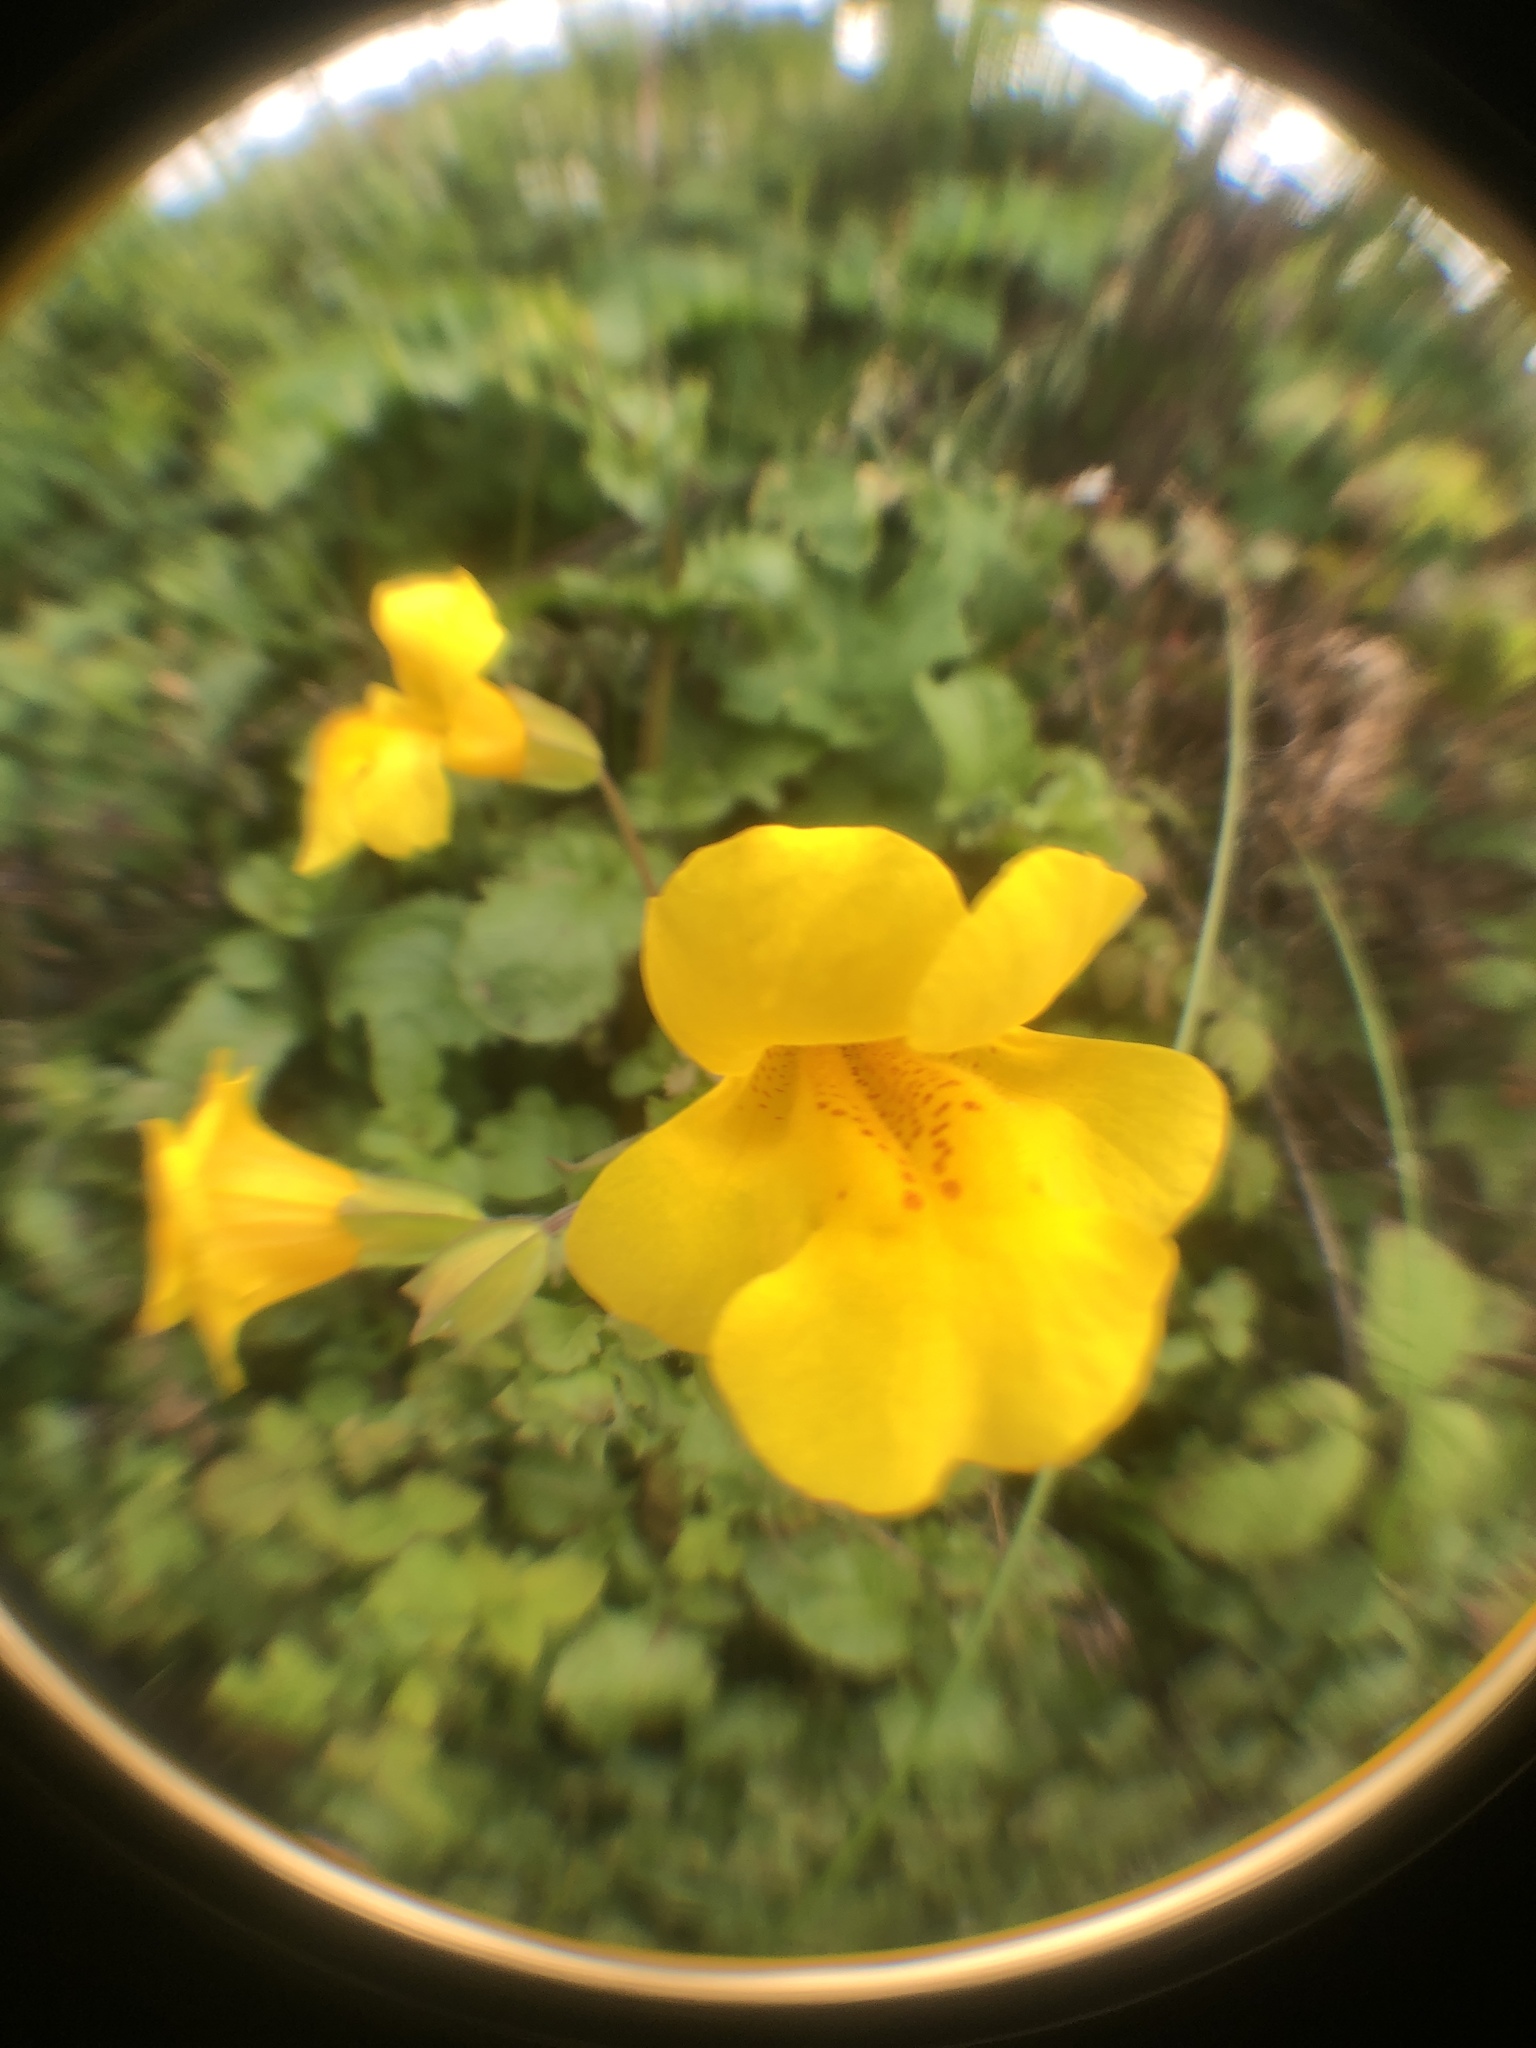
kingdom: Plantae
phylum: Tracheophyta
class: Magnoliopsida
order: Lamiales
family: Phrymaceae
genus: Erythranthe
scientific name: Erythranthe guttata
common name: Monkeyflower
